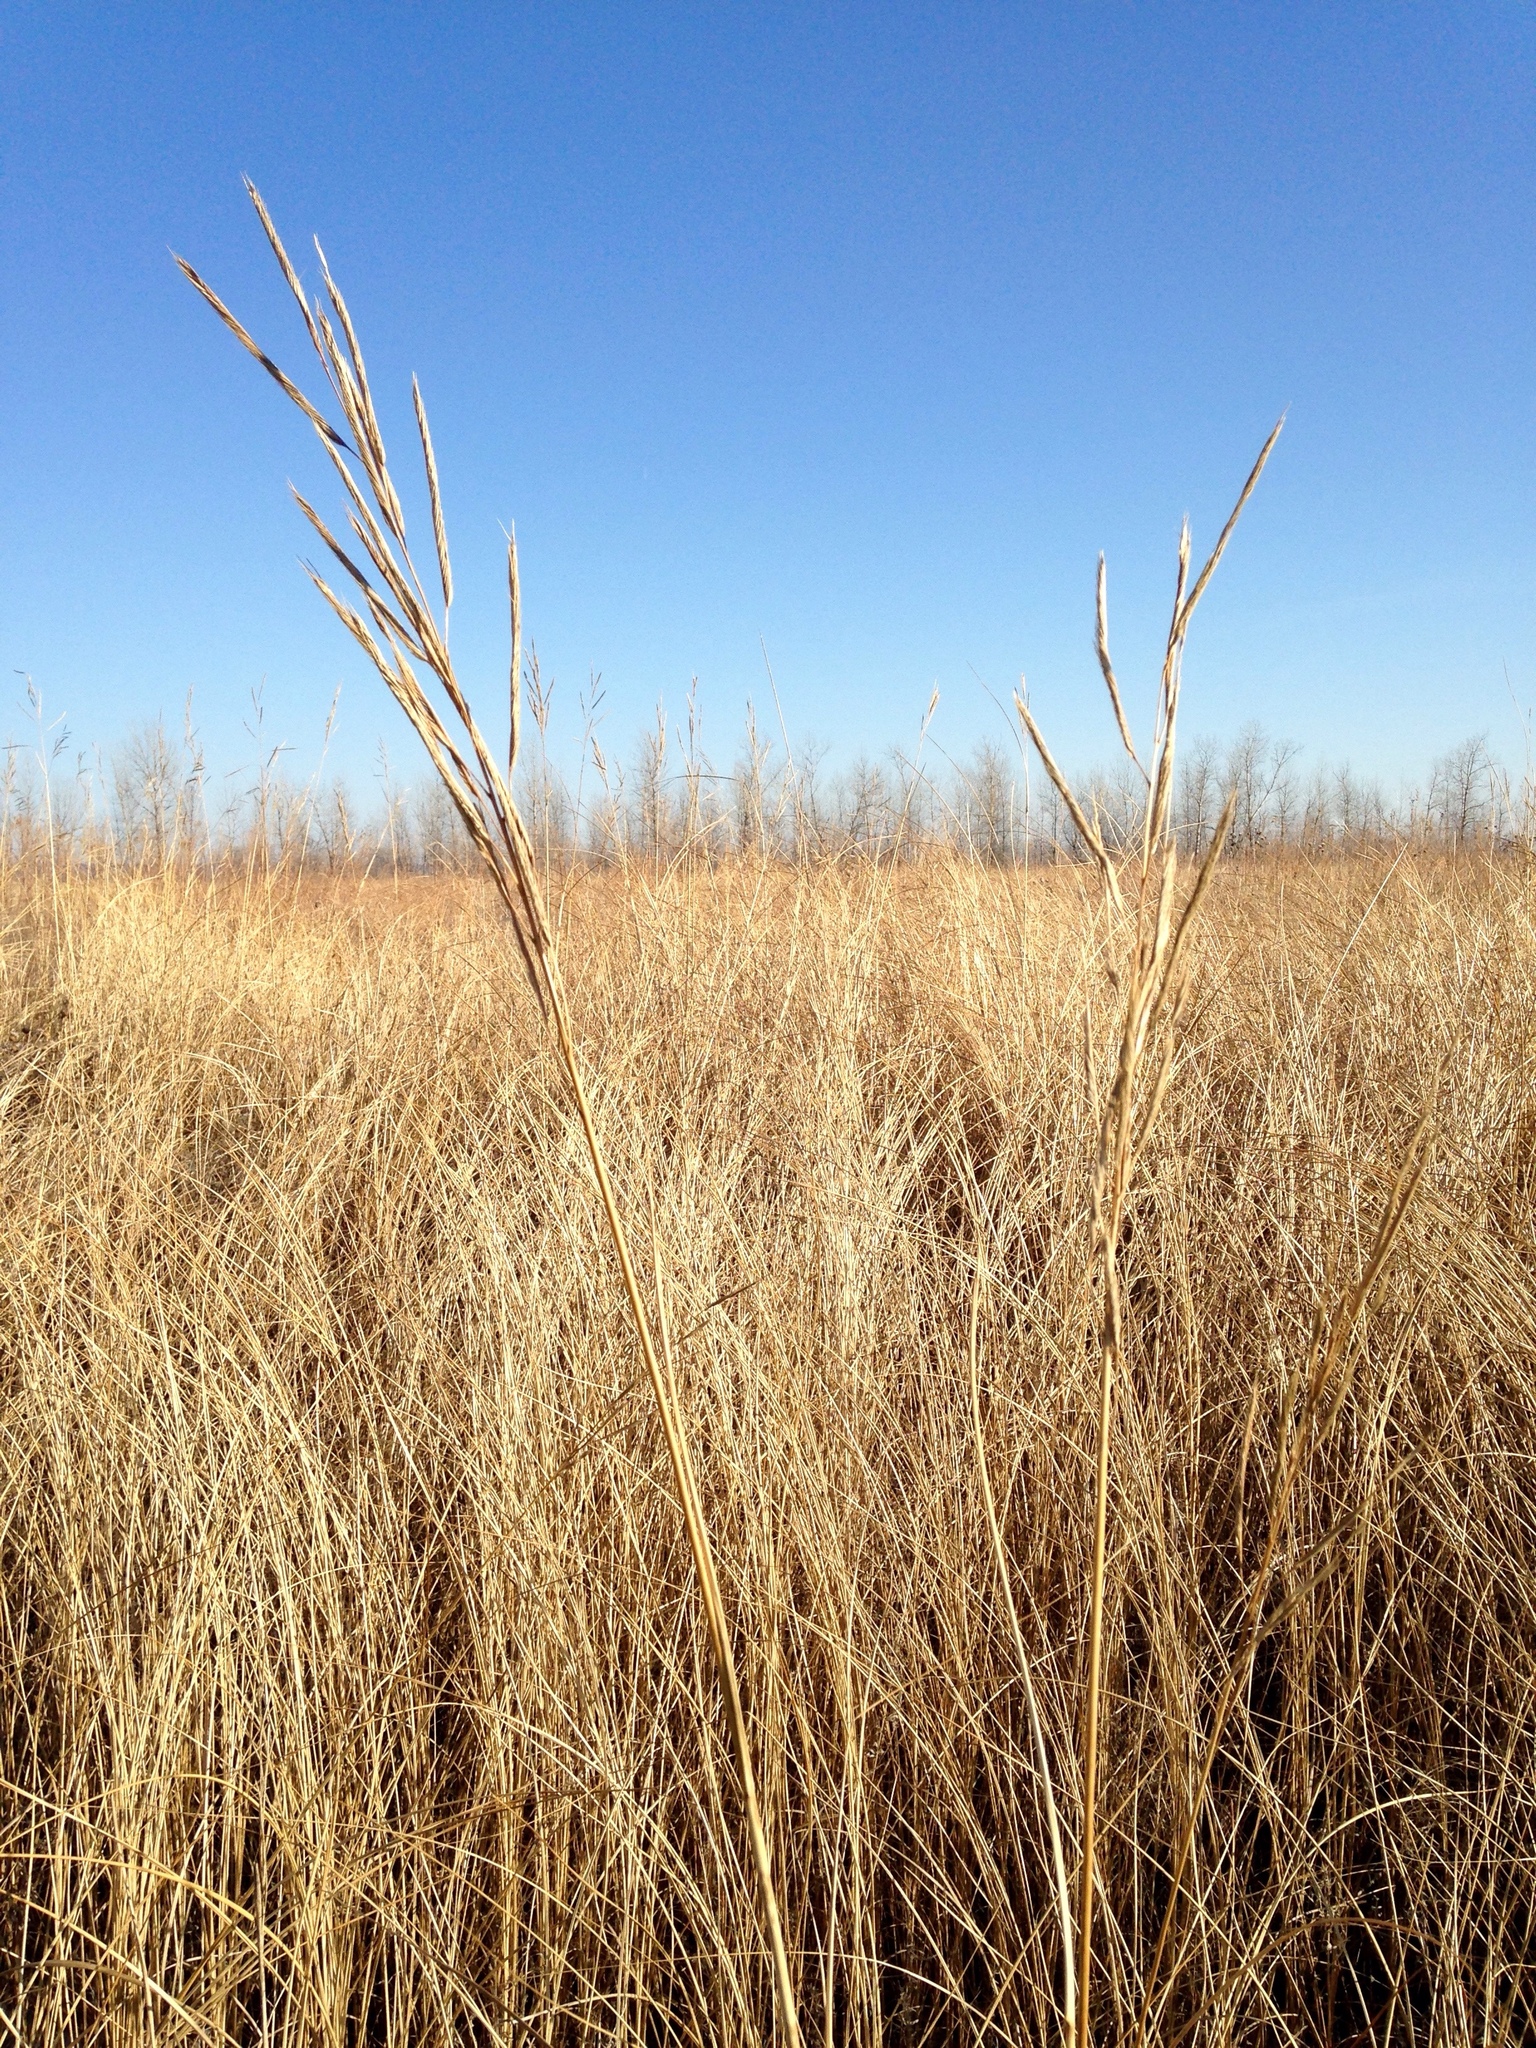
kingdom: Plantae
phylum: Tracheophyta
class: Liliopsida
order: Poales
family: Poaceae
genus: Sporobolus
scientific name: Sporobolus michauxianus
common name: Freshwater cordgrass
